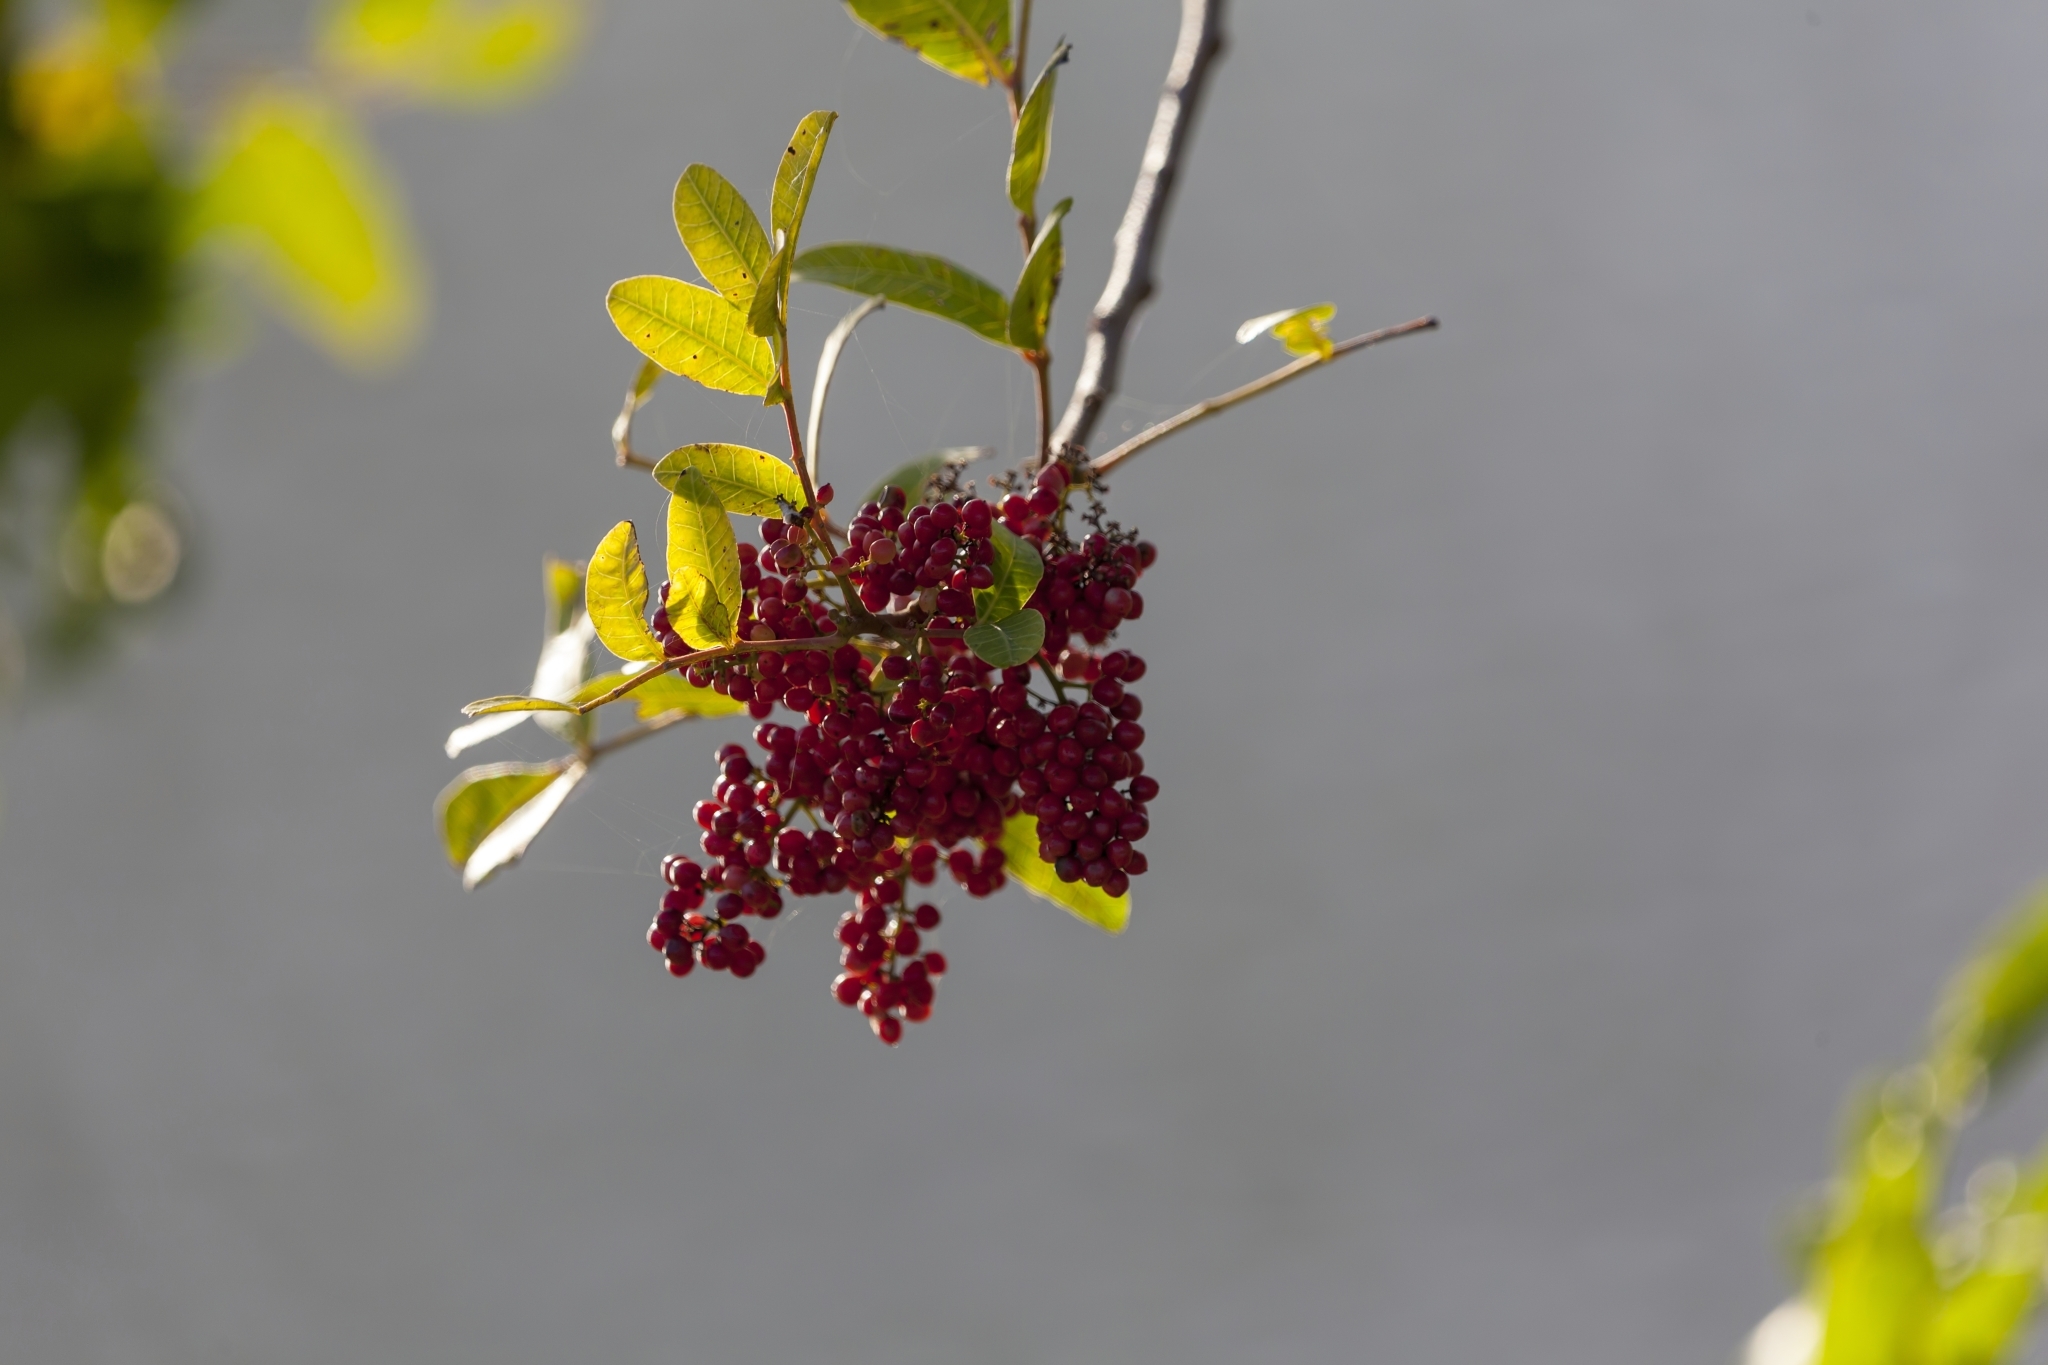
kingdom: Plantae
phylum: Tracheophyta
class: Magnoliopsida
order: Sapindales
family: Anacardiaceae
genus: Schinus
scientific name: Schinus terebinthifolia
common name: Brazilian peppertree
